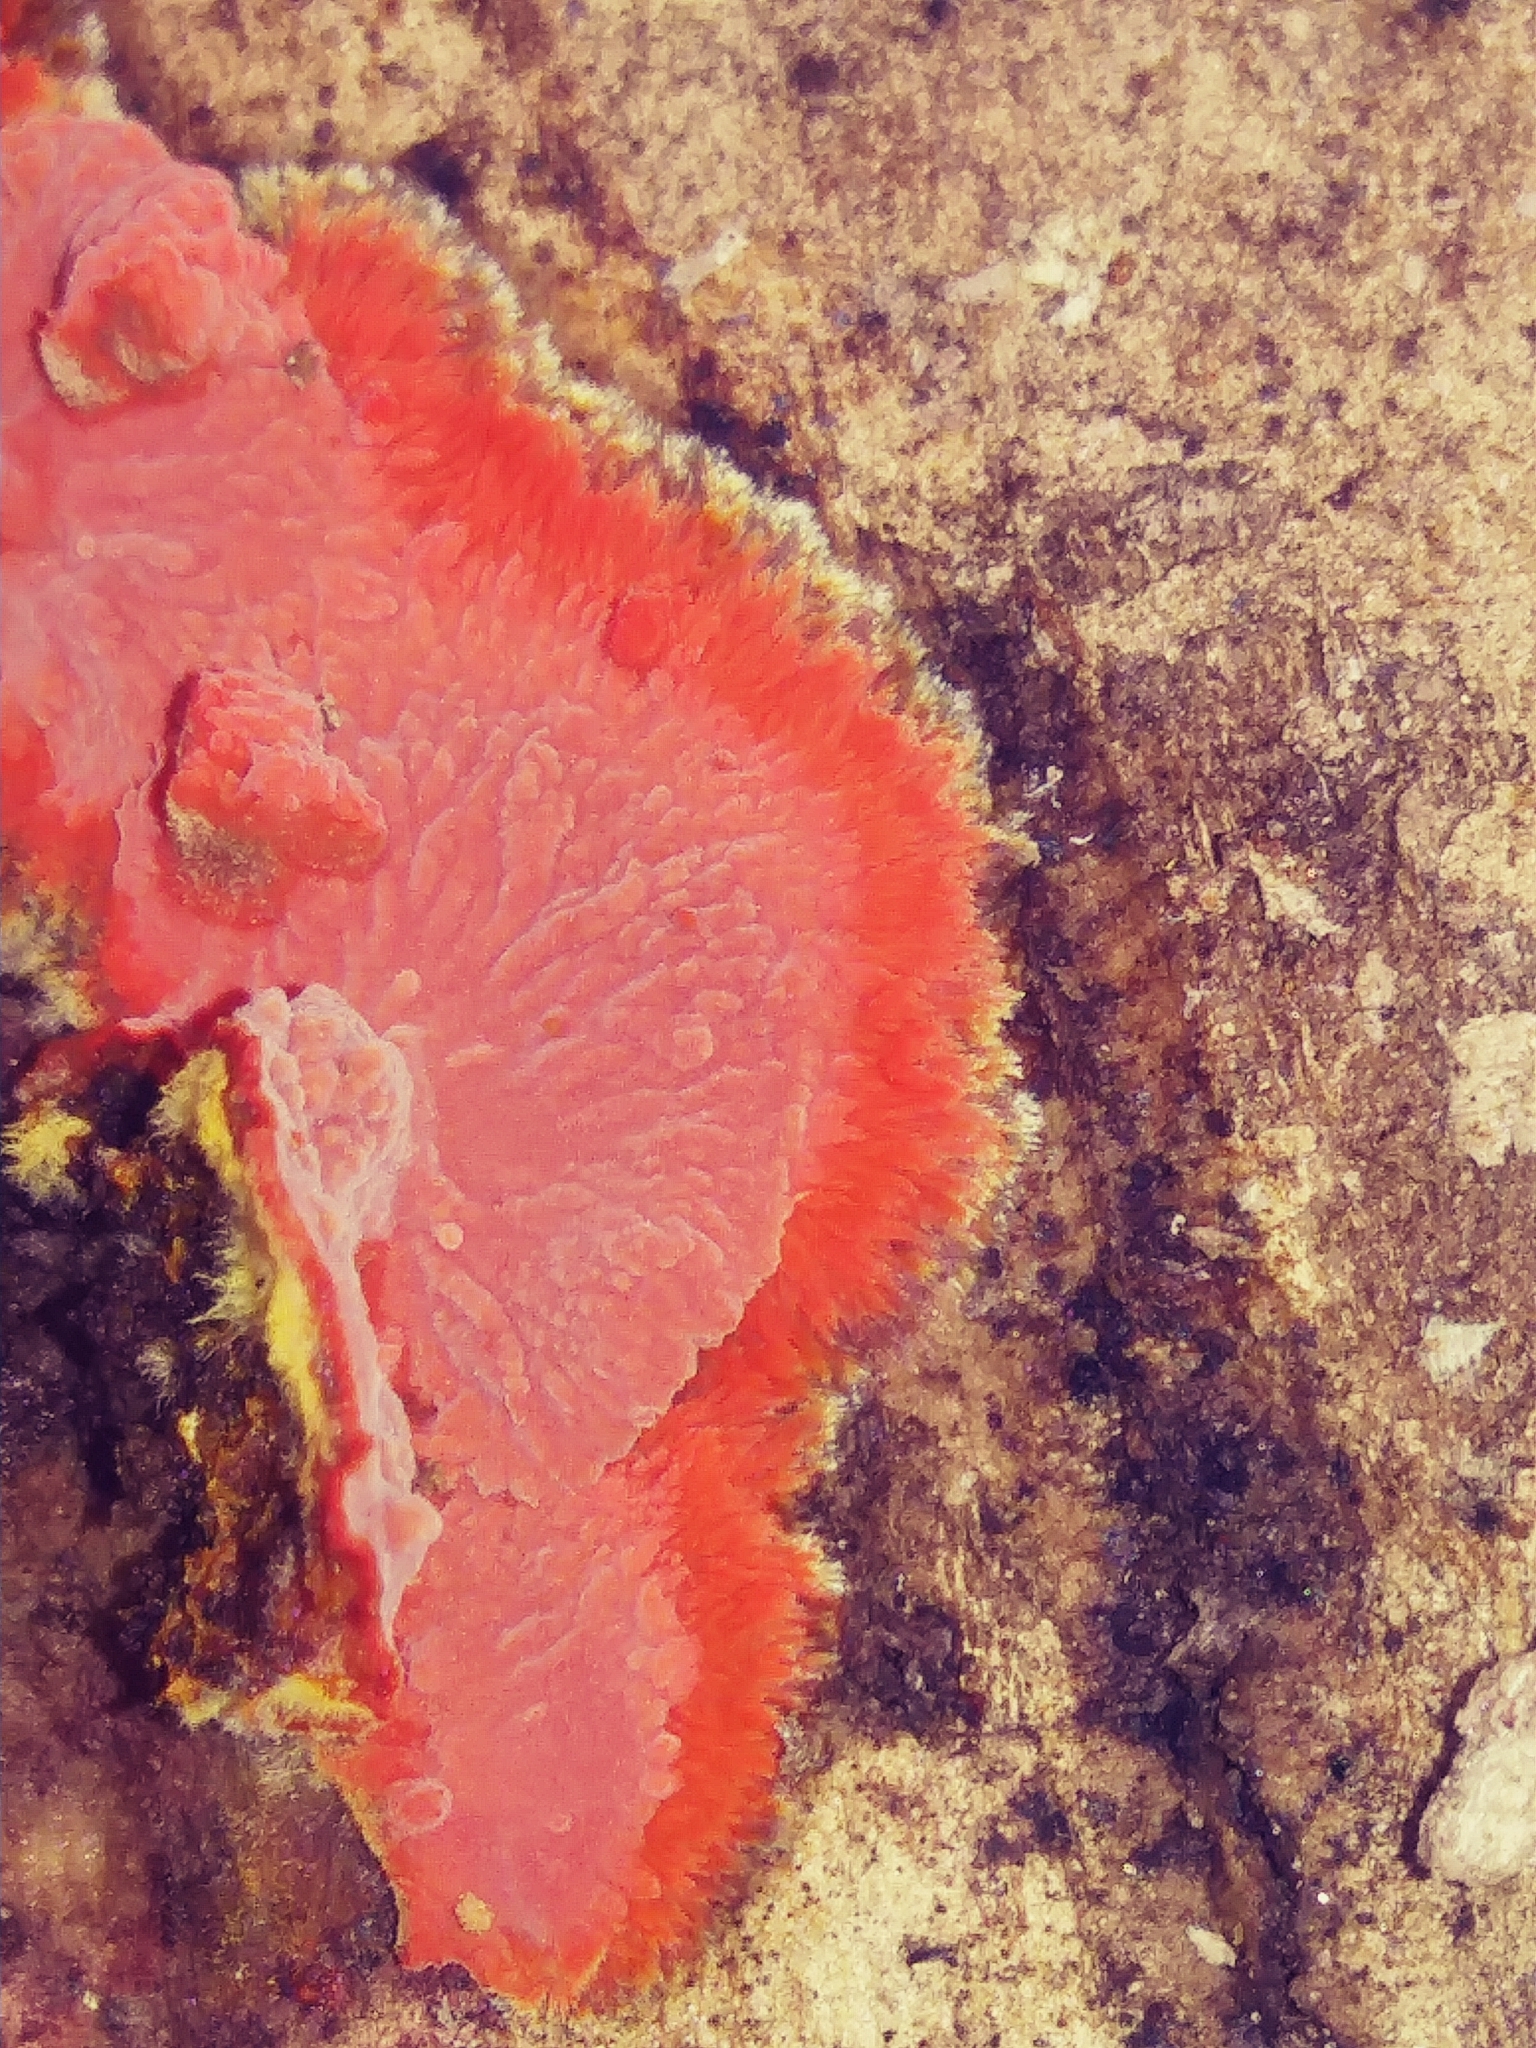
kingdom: Fungi
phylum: Basidiomycota
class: Agaricomycetes
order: Polyporales
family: Meruliaceae
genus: Phlebia
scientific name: Phlebia coccineofulva
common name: Scarlet waxcrust
